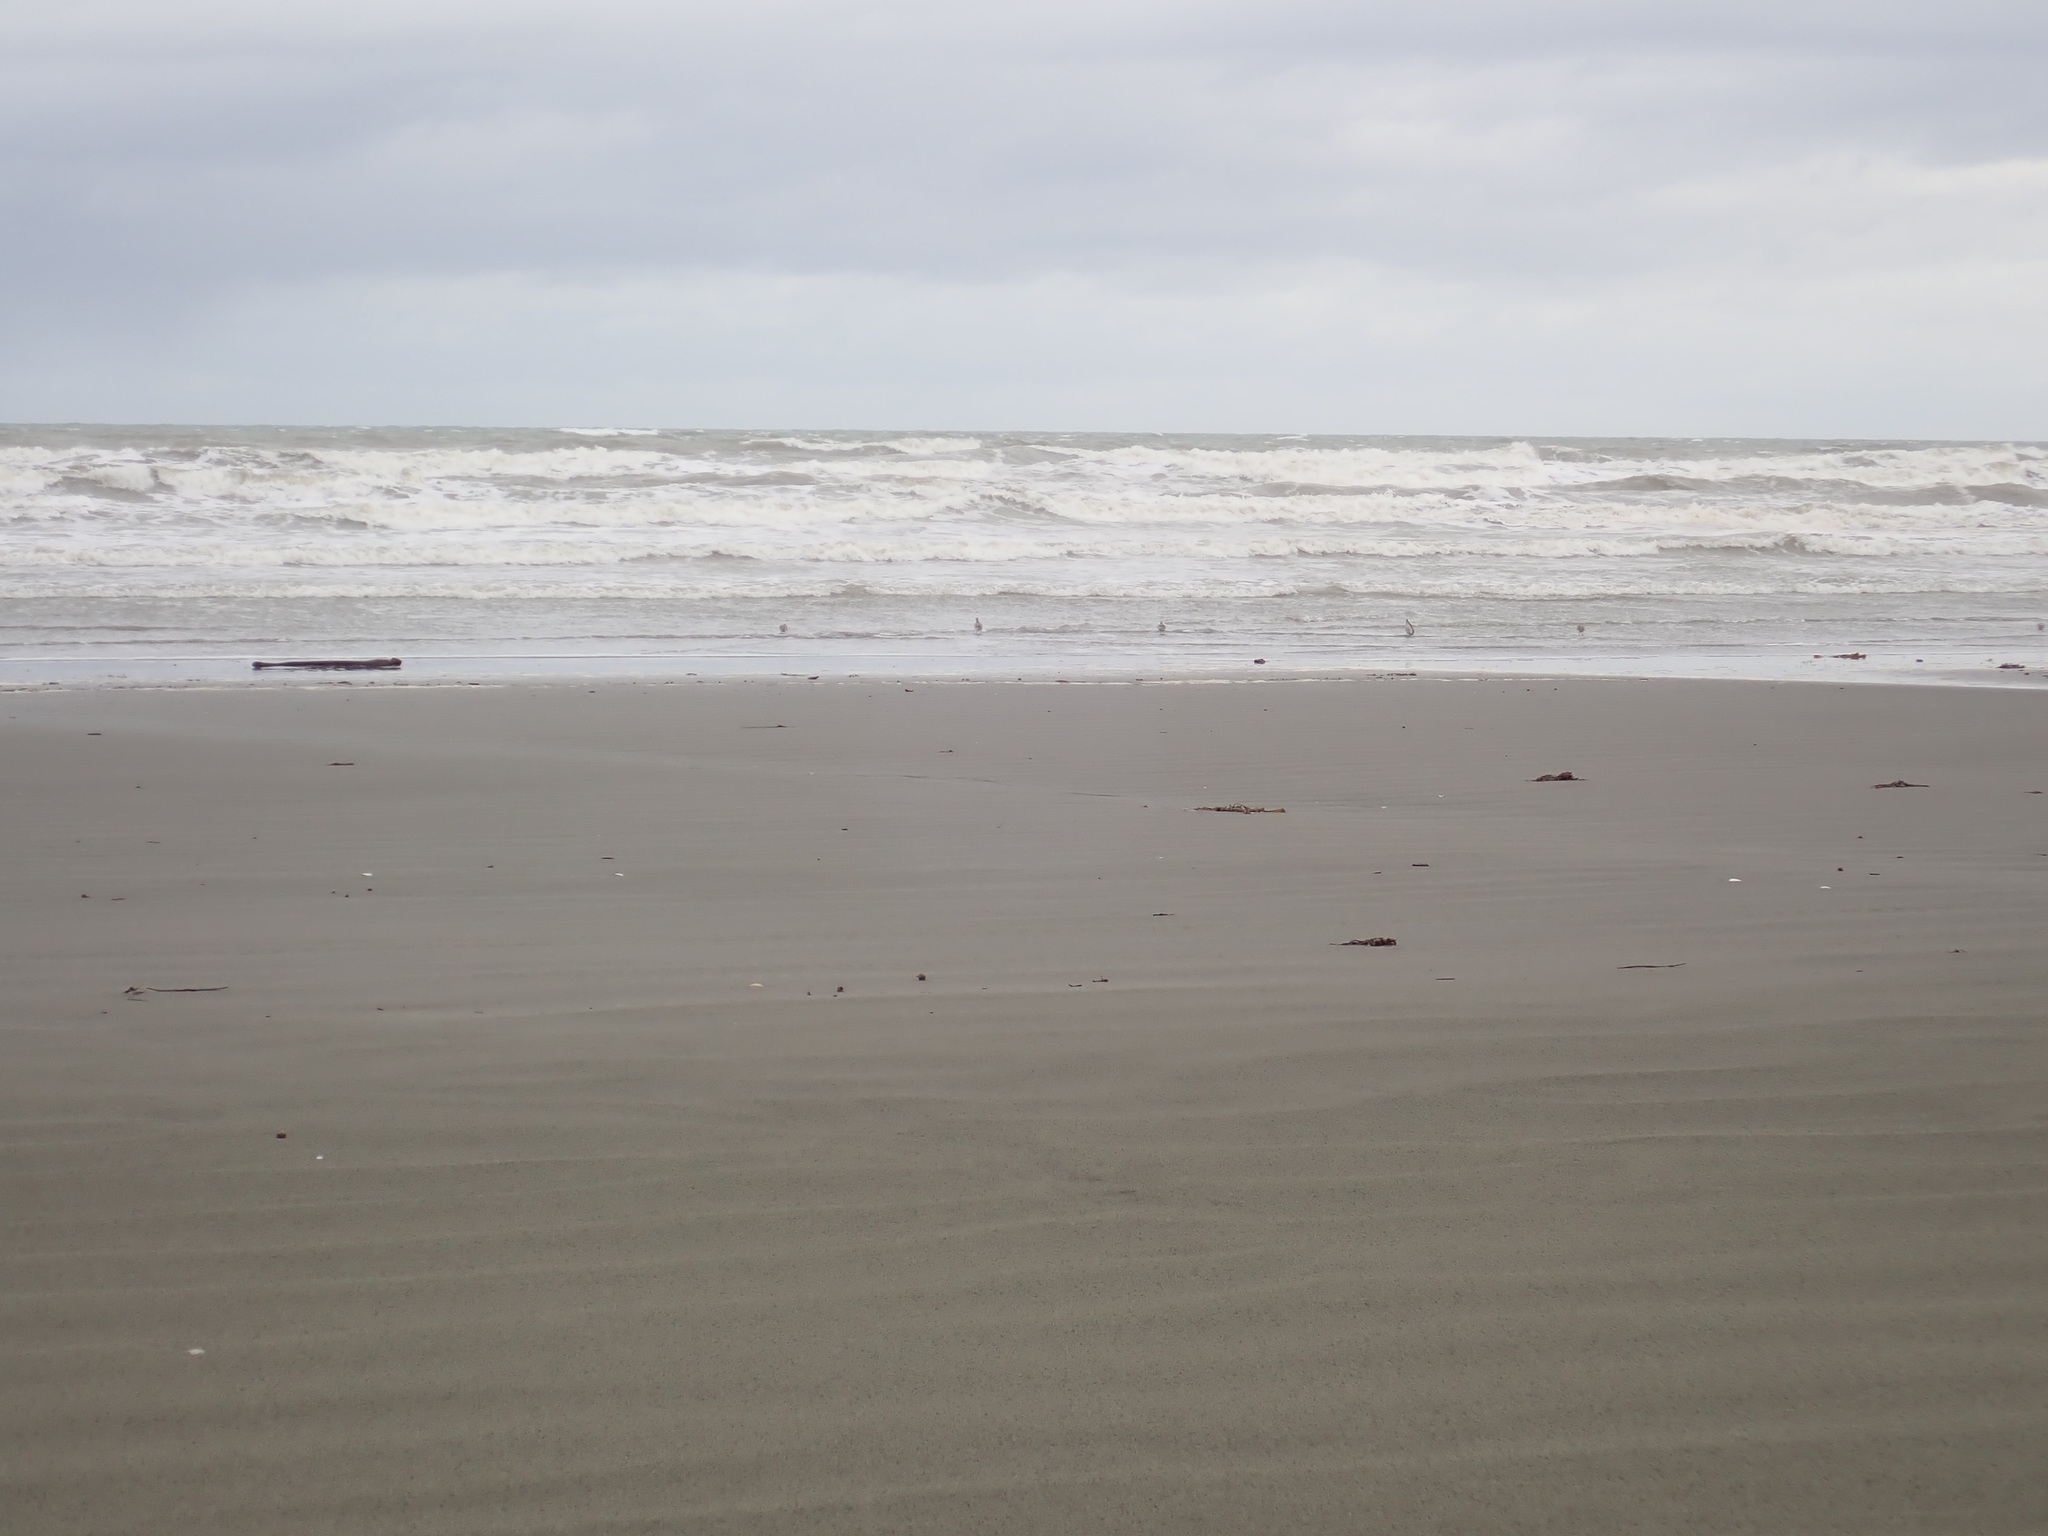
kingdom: Animalia
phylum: Chordata
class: Aves
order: Charadriiformes
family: Scolopacidae
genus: Limosa
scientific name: Limosa lapponica
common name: Bar-tailed godwit
